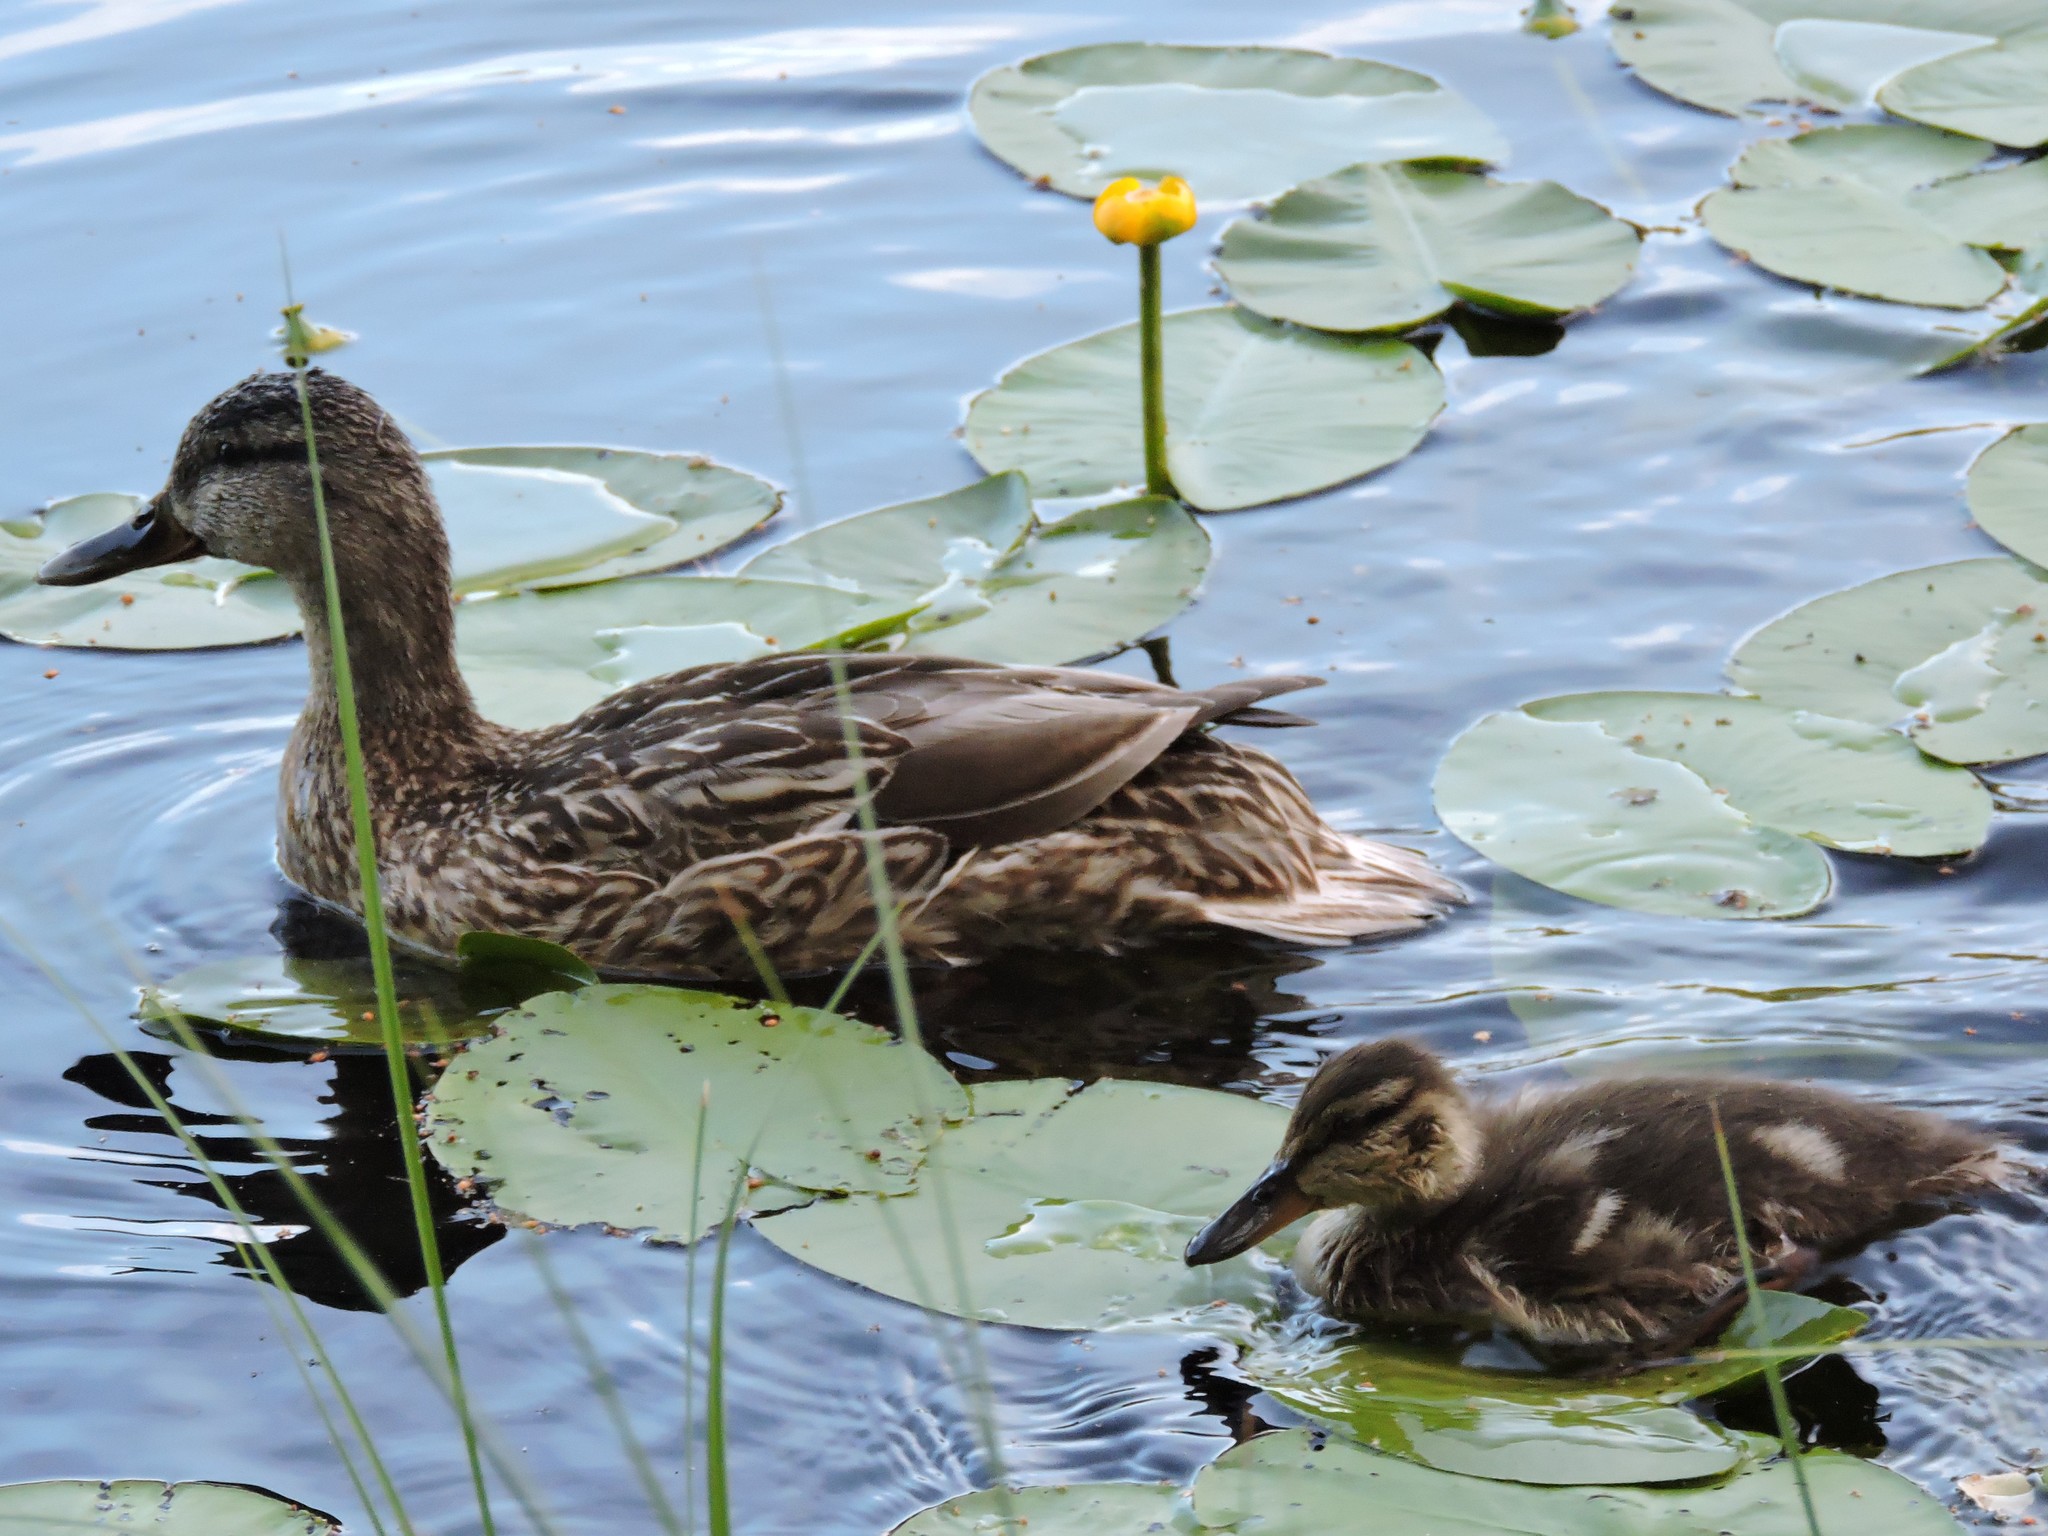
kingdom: Animalia
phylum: Chordata
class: Aves
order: Anseriformes
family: Anatidae
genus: Anas
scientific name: Anas platyrhynchos
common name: Mallard
